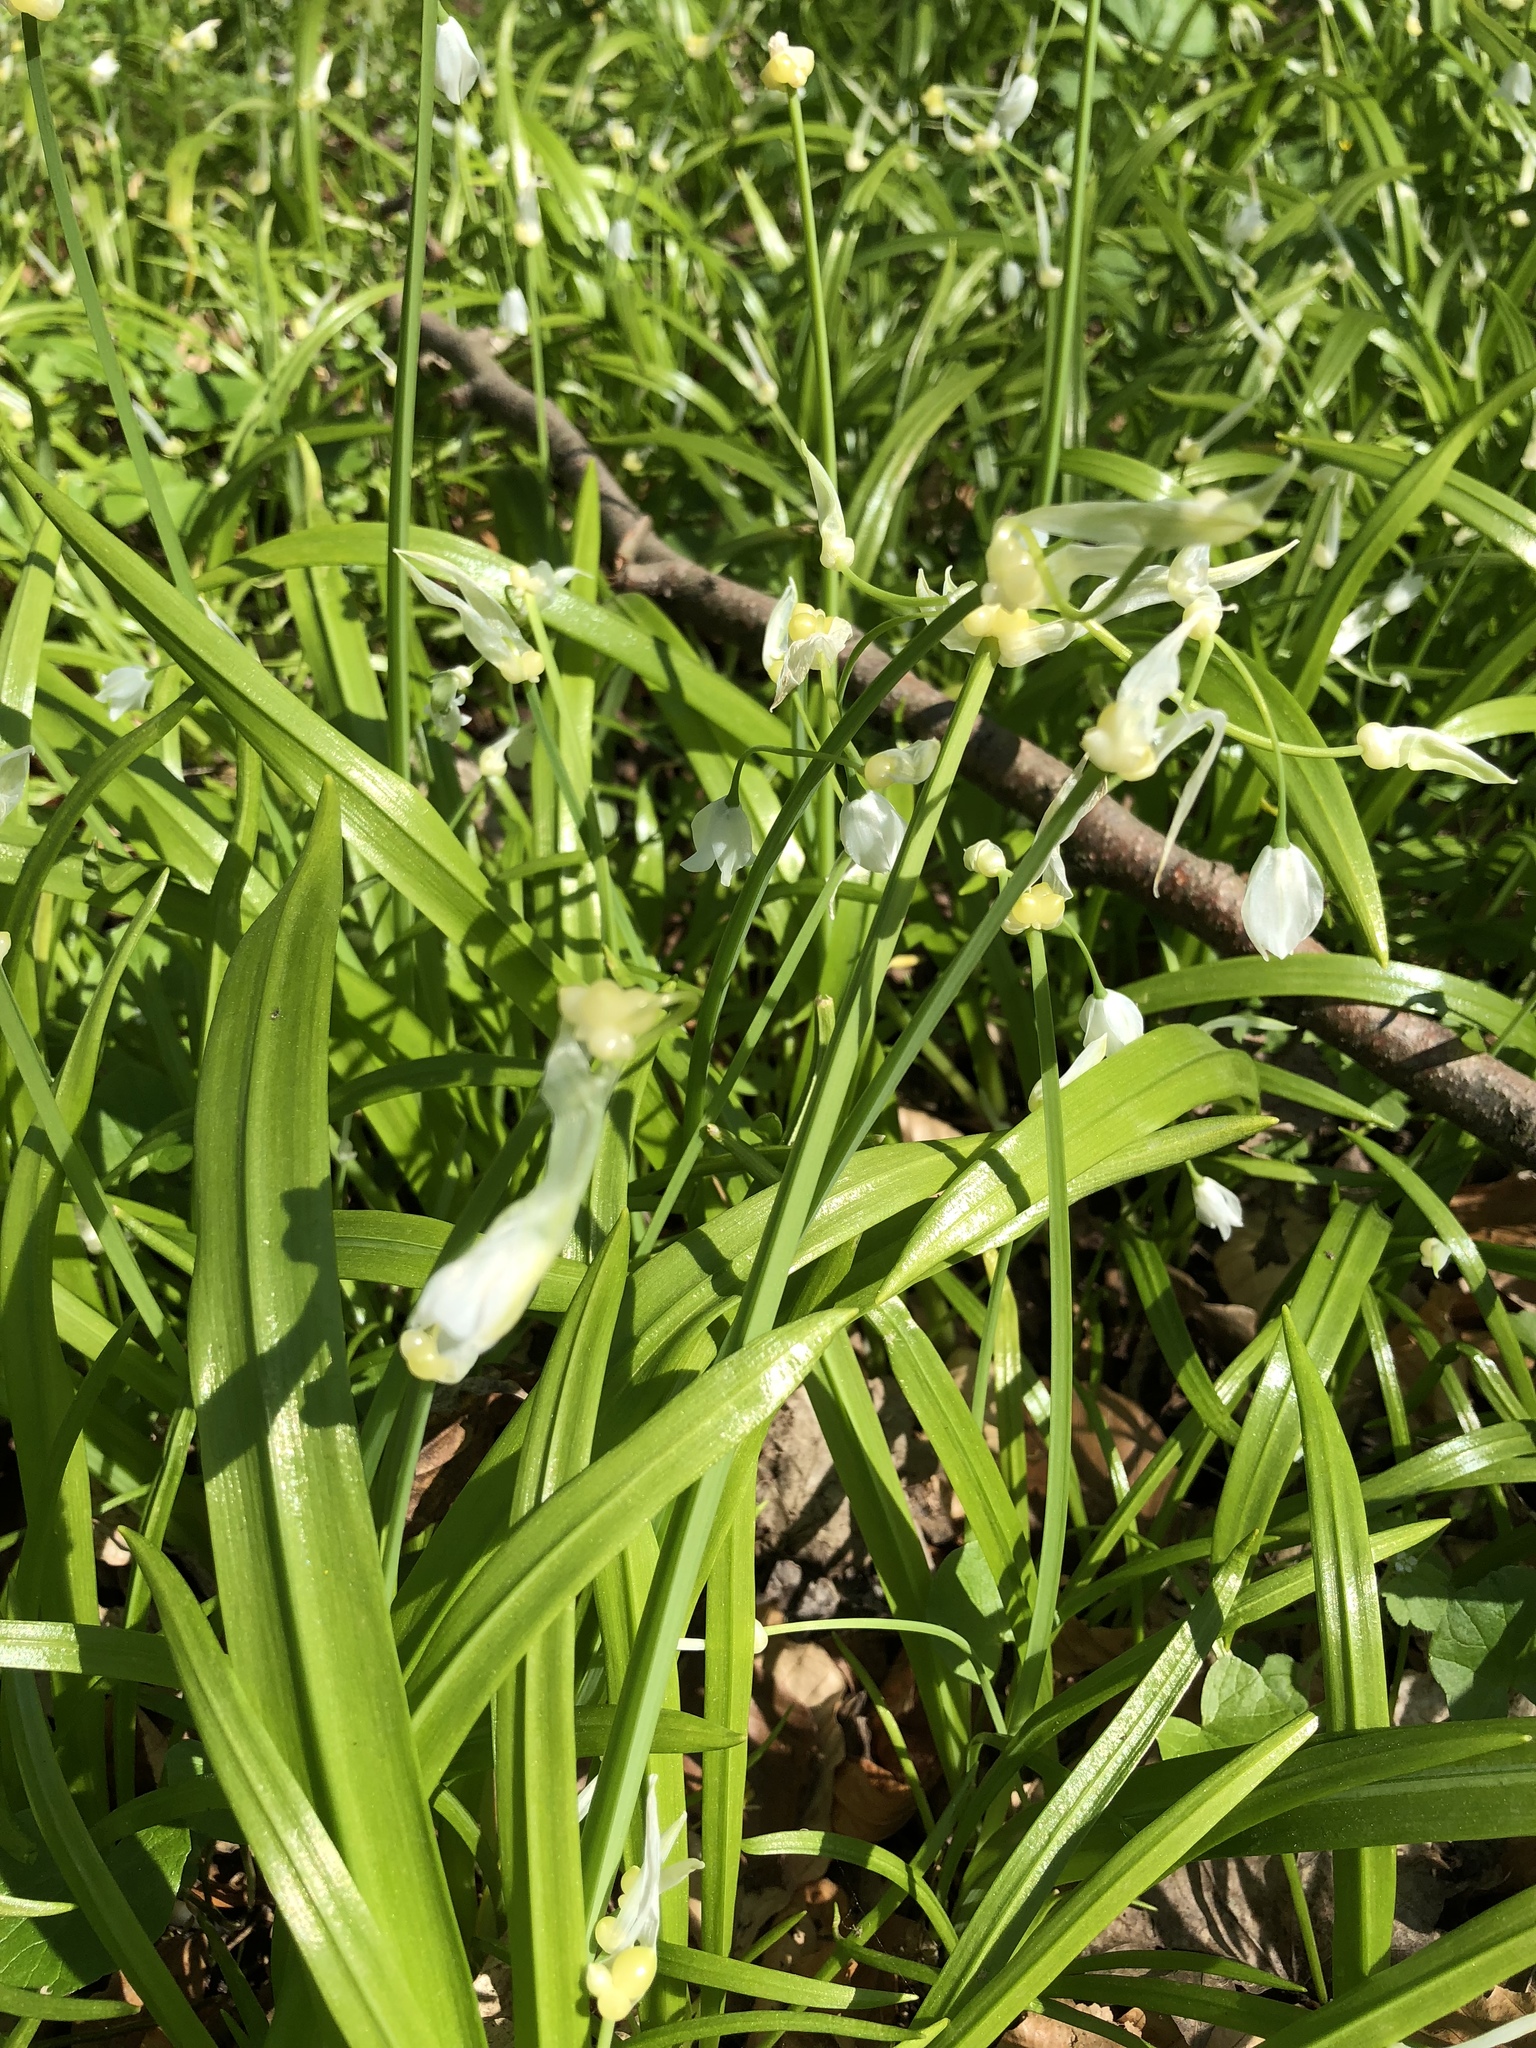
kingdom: Plantae
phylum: Tracheophyta
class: Liliopsida
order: Asparagales
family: Amaryllidaceae
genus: Allium
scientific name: Allium paradoxum
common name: Few-flowered garlic
